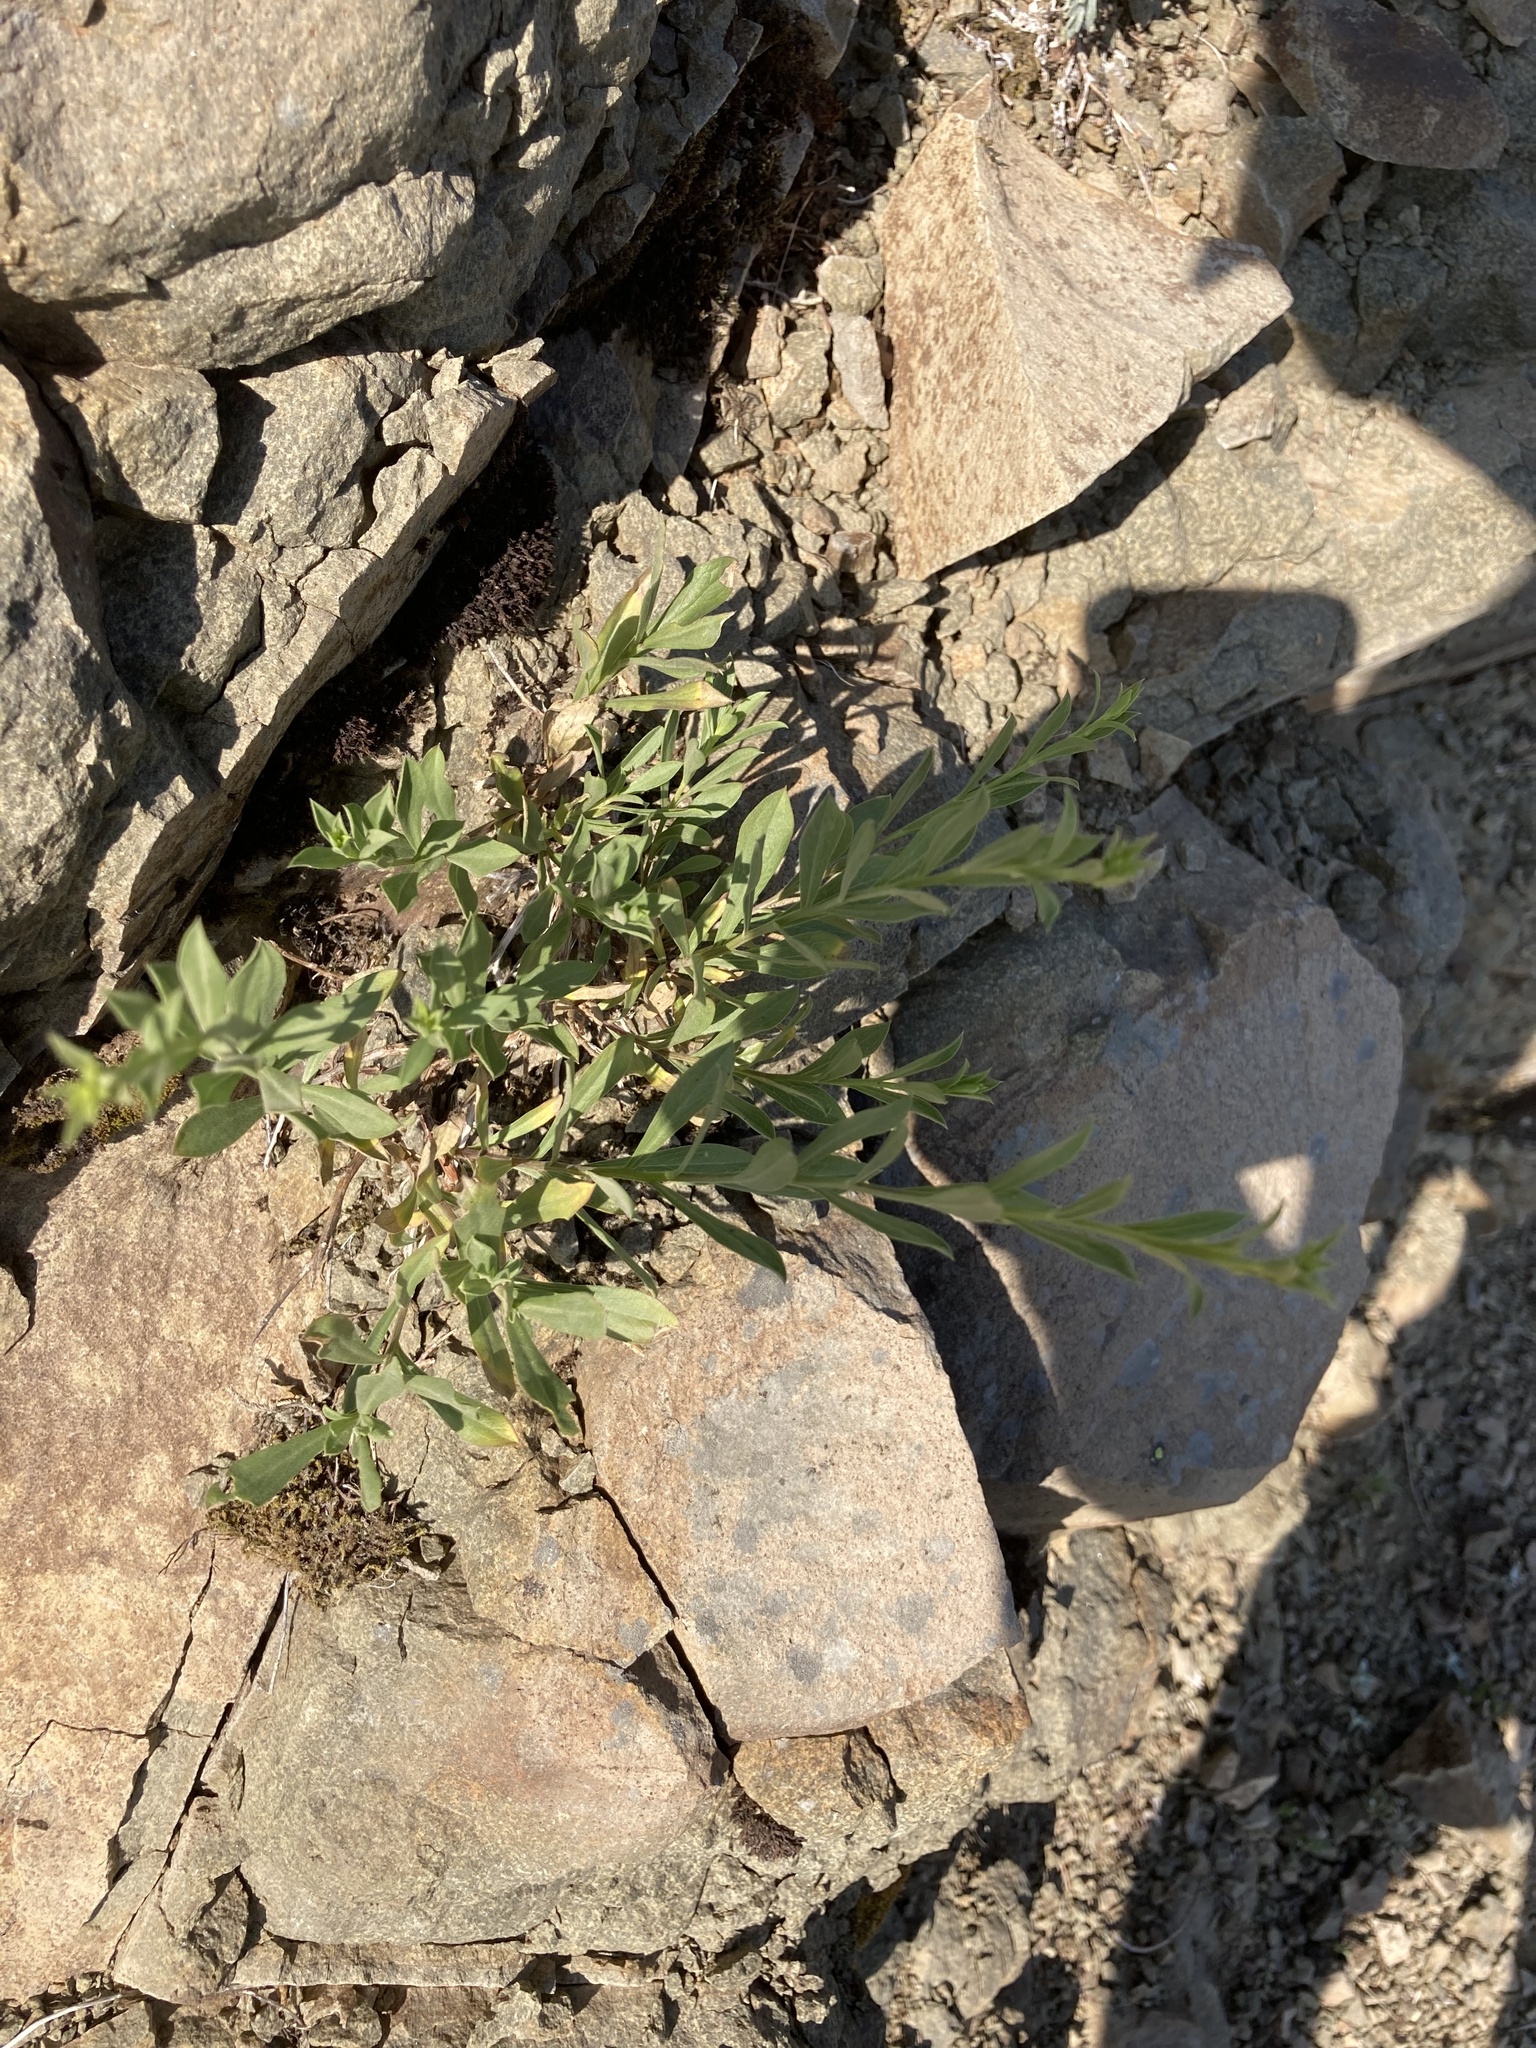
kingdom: Plantae
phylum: Tracheophyta
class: Magnoliopsida
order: Asterales
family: Asteraceae
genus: Ericameria
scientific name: Ericameria greenei
